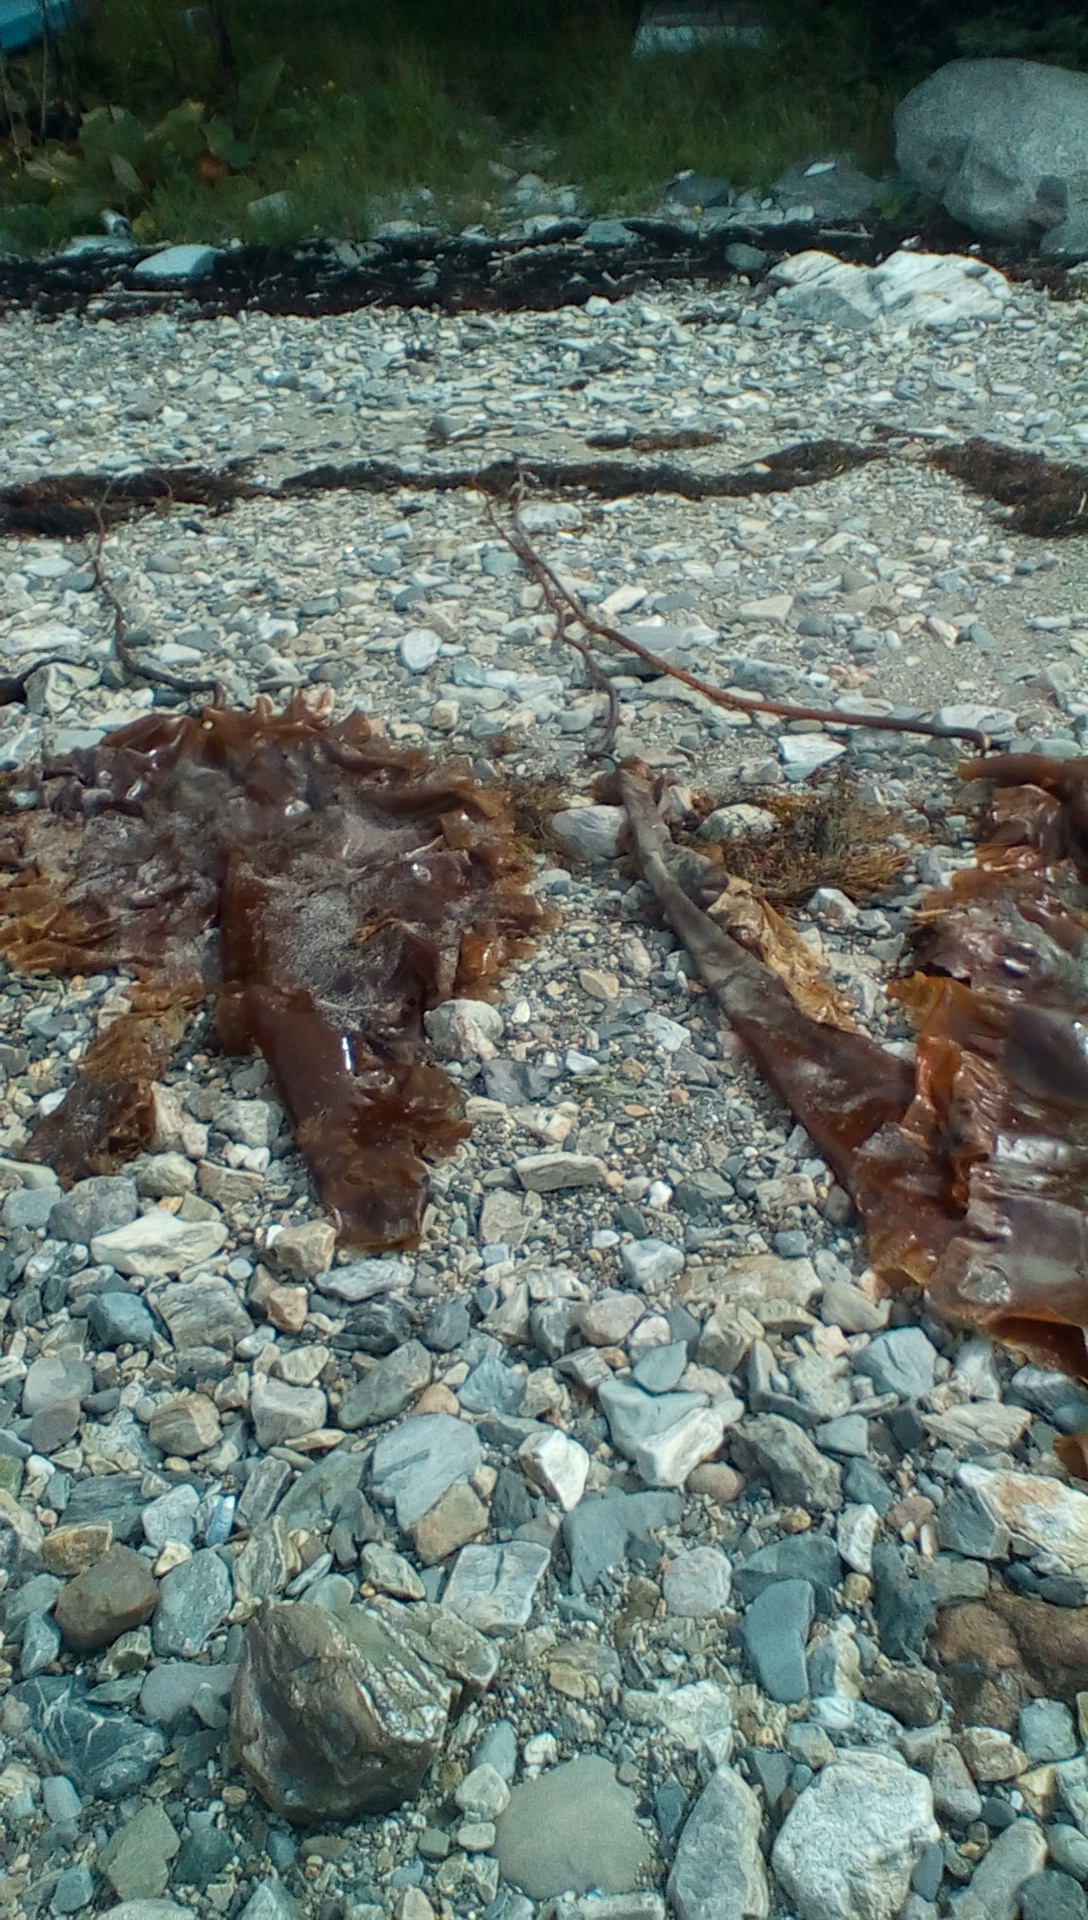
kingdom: Chromista
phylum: Ochrophyta
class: Phaeophyceae
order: Laminariales
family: Laminariaceae
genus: Saccharina
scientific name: Saccharina longicruris
